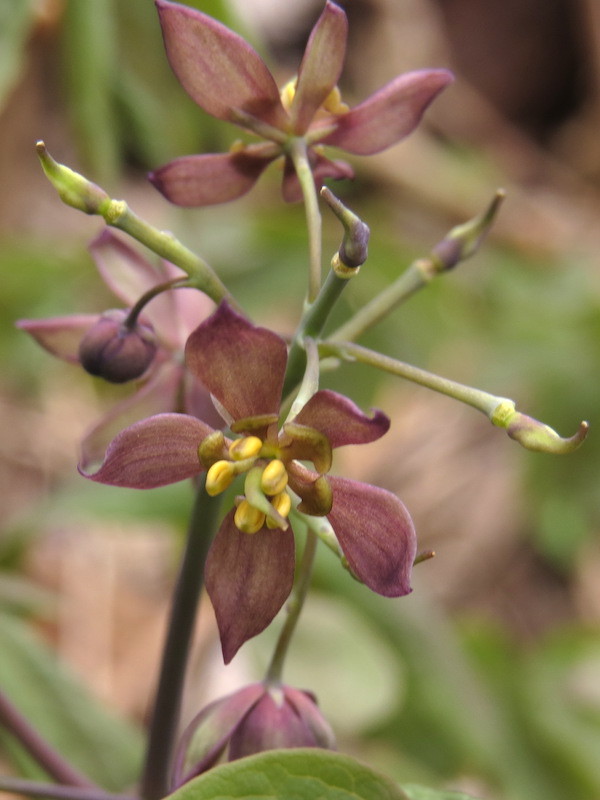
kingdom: Plantae
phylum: Tracheophyta
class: Magnoliopsida
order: Ranunculales
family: Berberidaceae
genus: Caulophyllum
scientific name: Caulophyllum giganteum
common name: Blue cohosh
